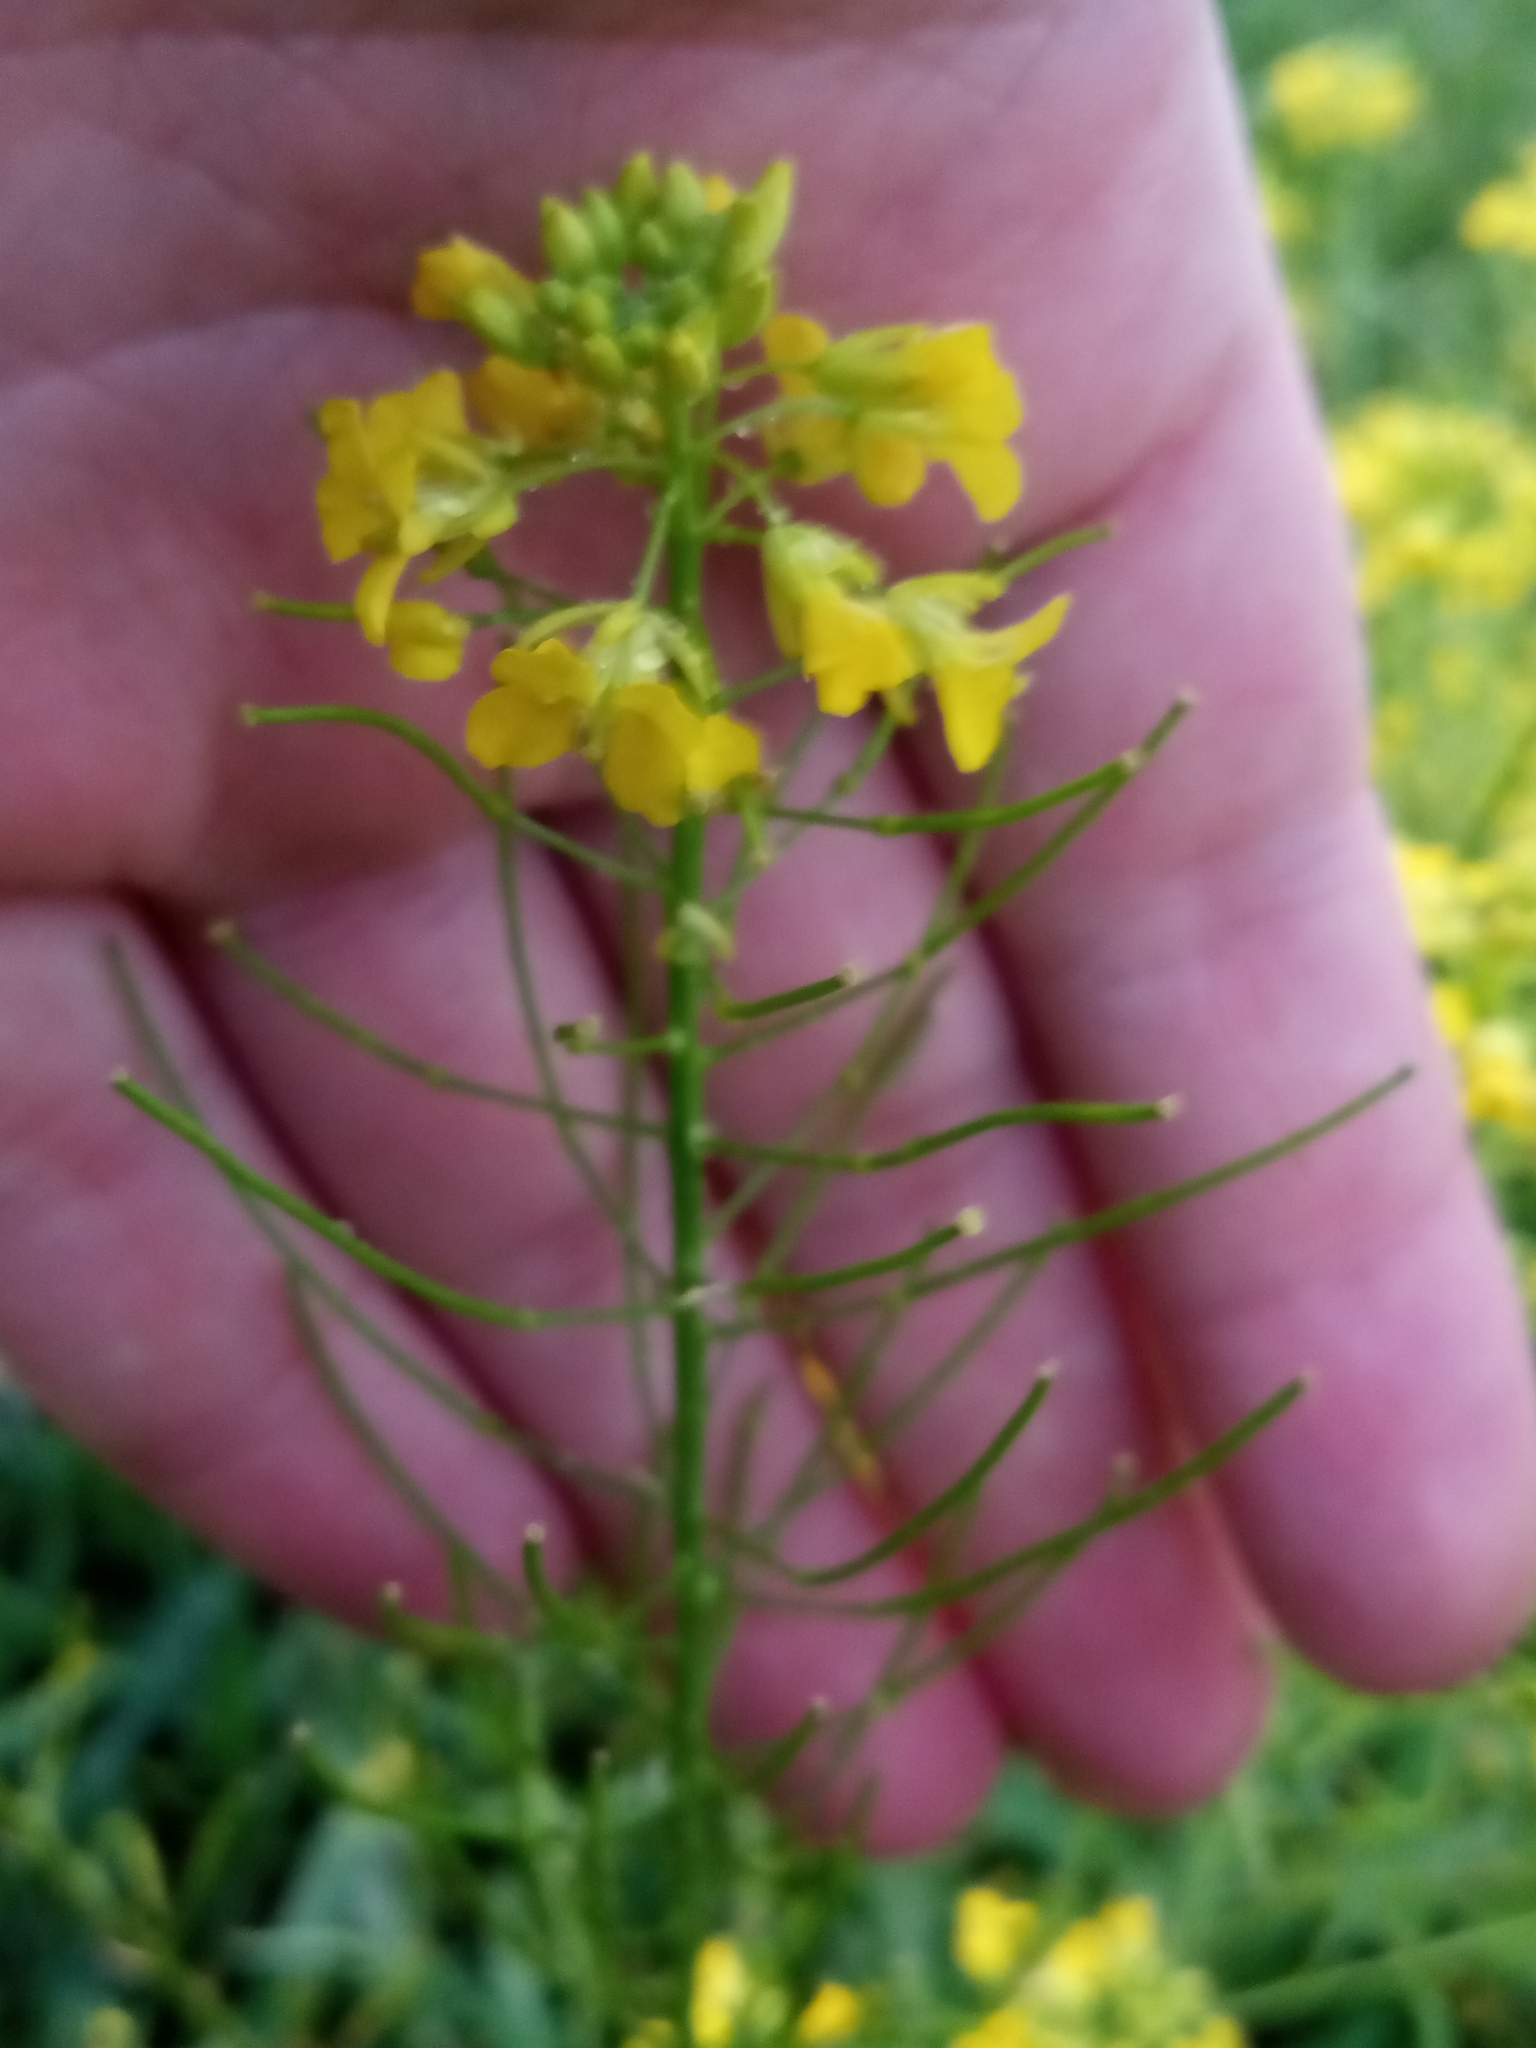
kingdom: Plantae
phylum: Tracheophyta
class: Magnoliopsida
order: Brassicales
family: Brassicaceae
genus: Sisymbrium
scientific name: Sisymbrium loeselii
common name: False london-rocket
